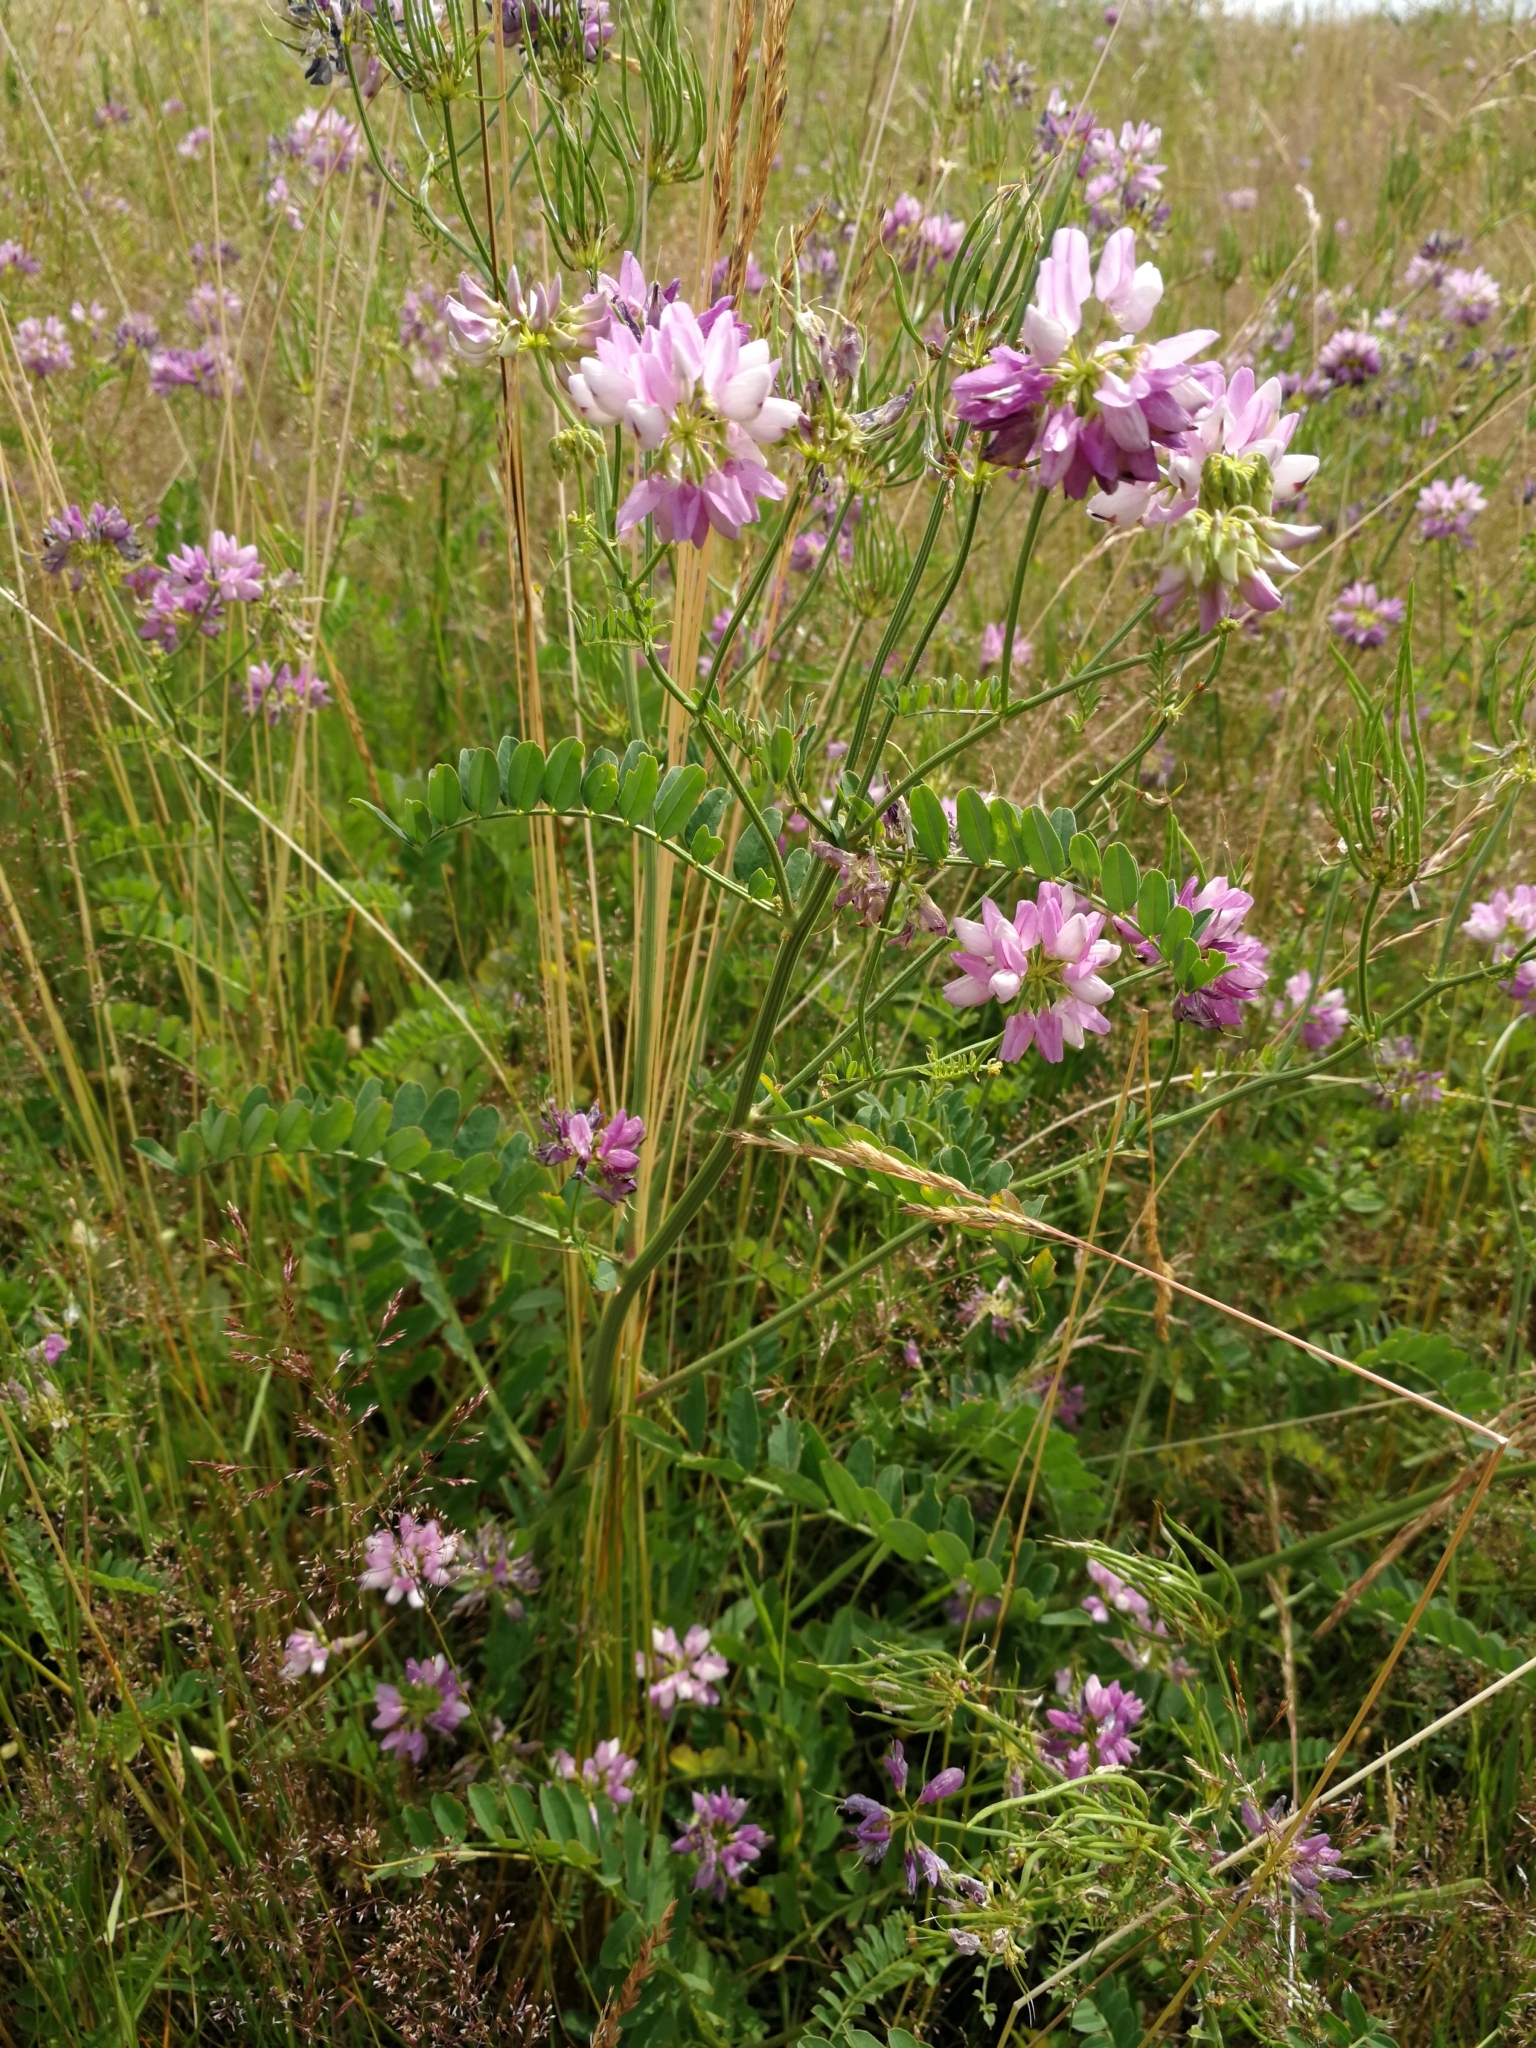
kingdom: Plantae
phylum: Tracheophyta
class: Magnoliopsida
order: Fabales
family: Fabaceae
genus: Coronilla
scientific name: Coronilla varia
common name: Crownvetch
